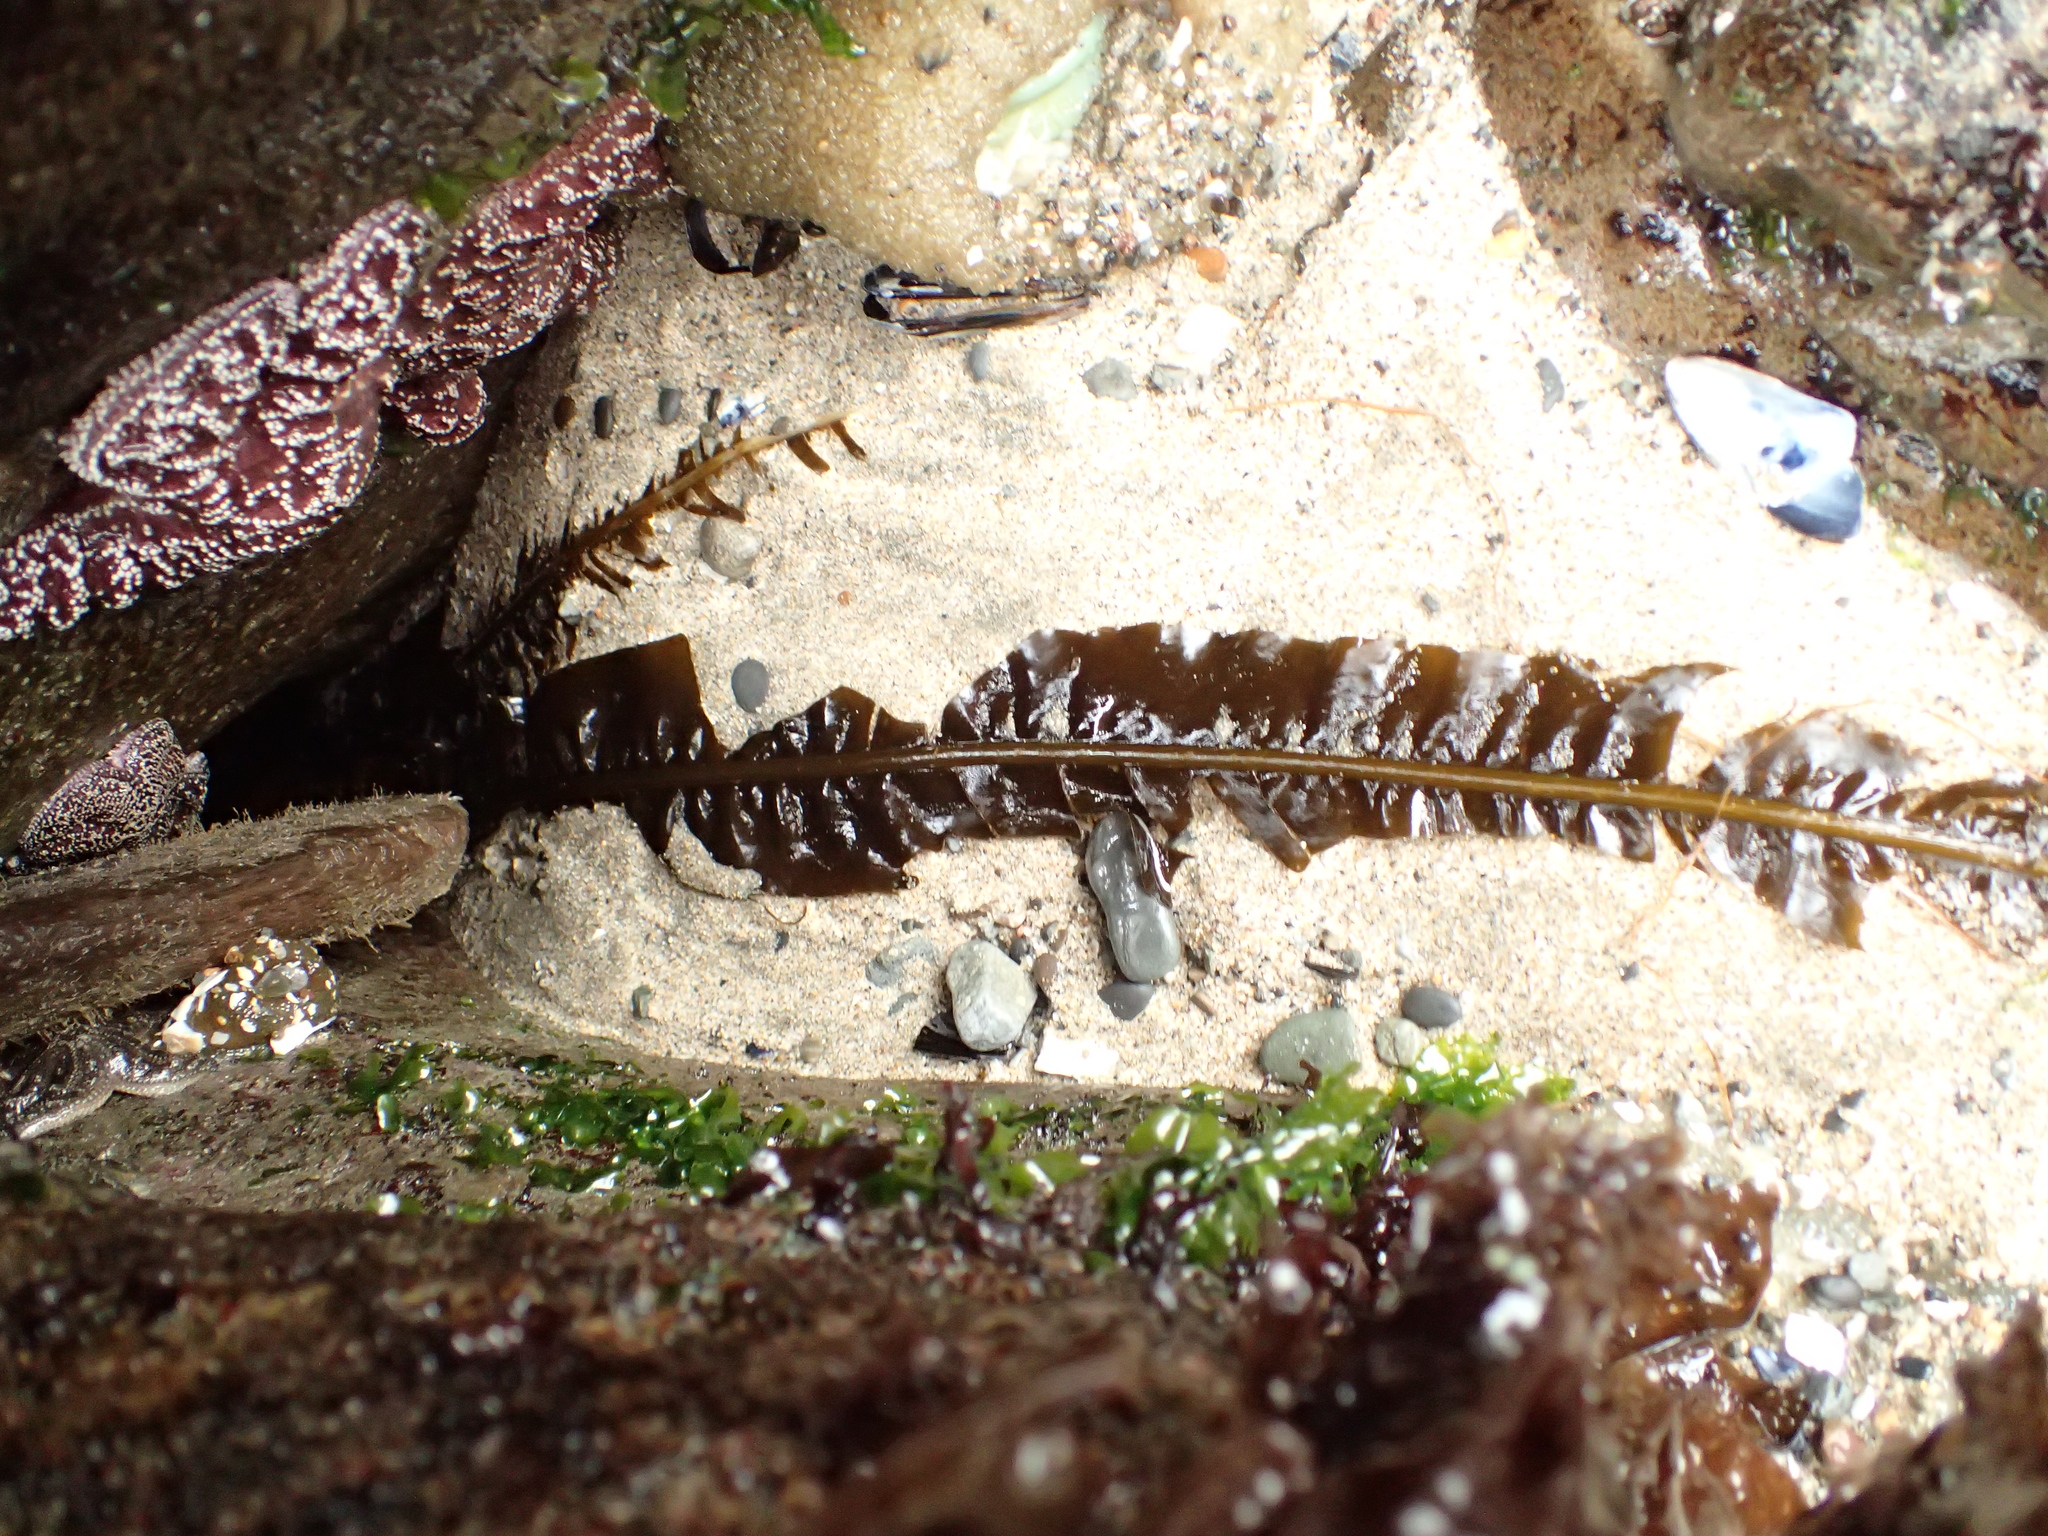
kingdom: Chromista
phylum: Ochrophyta
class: Phaeophyceae
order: Laminariales
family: Alariaceae
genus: Alaria
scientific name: Alaria marginata
